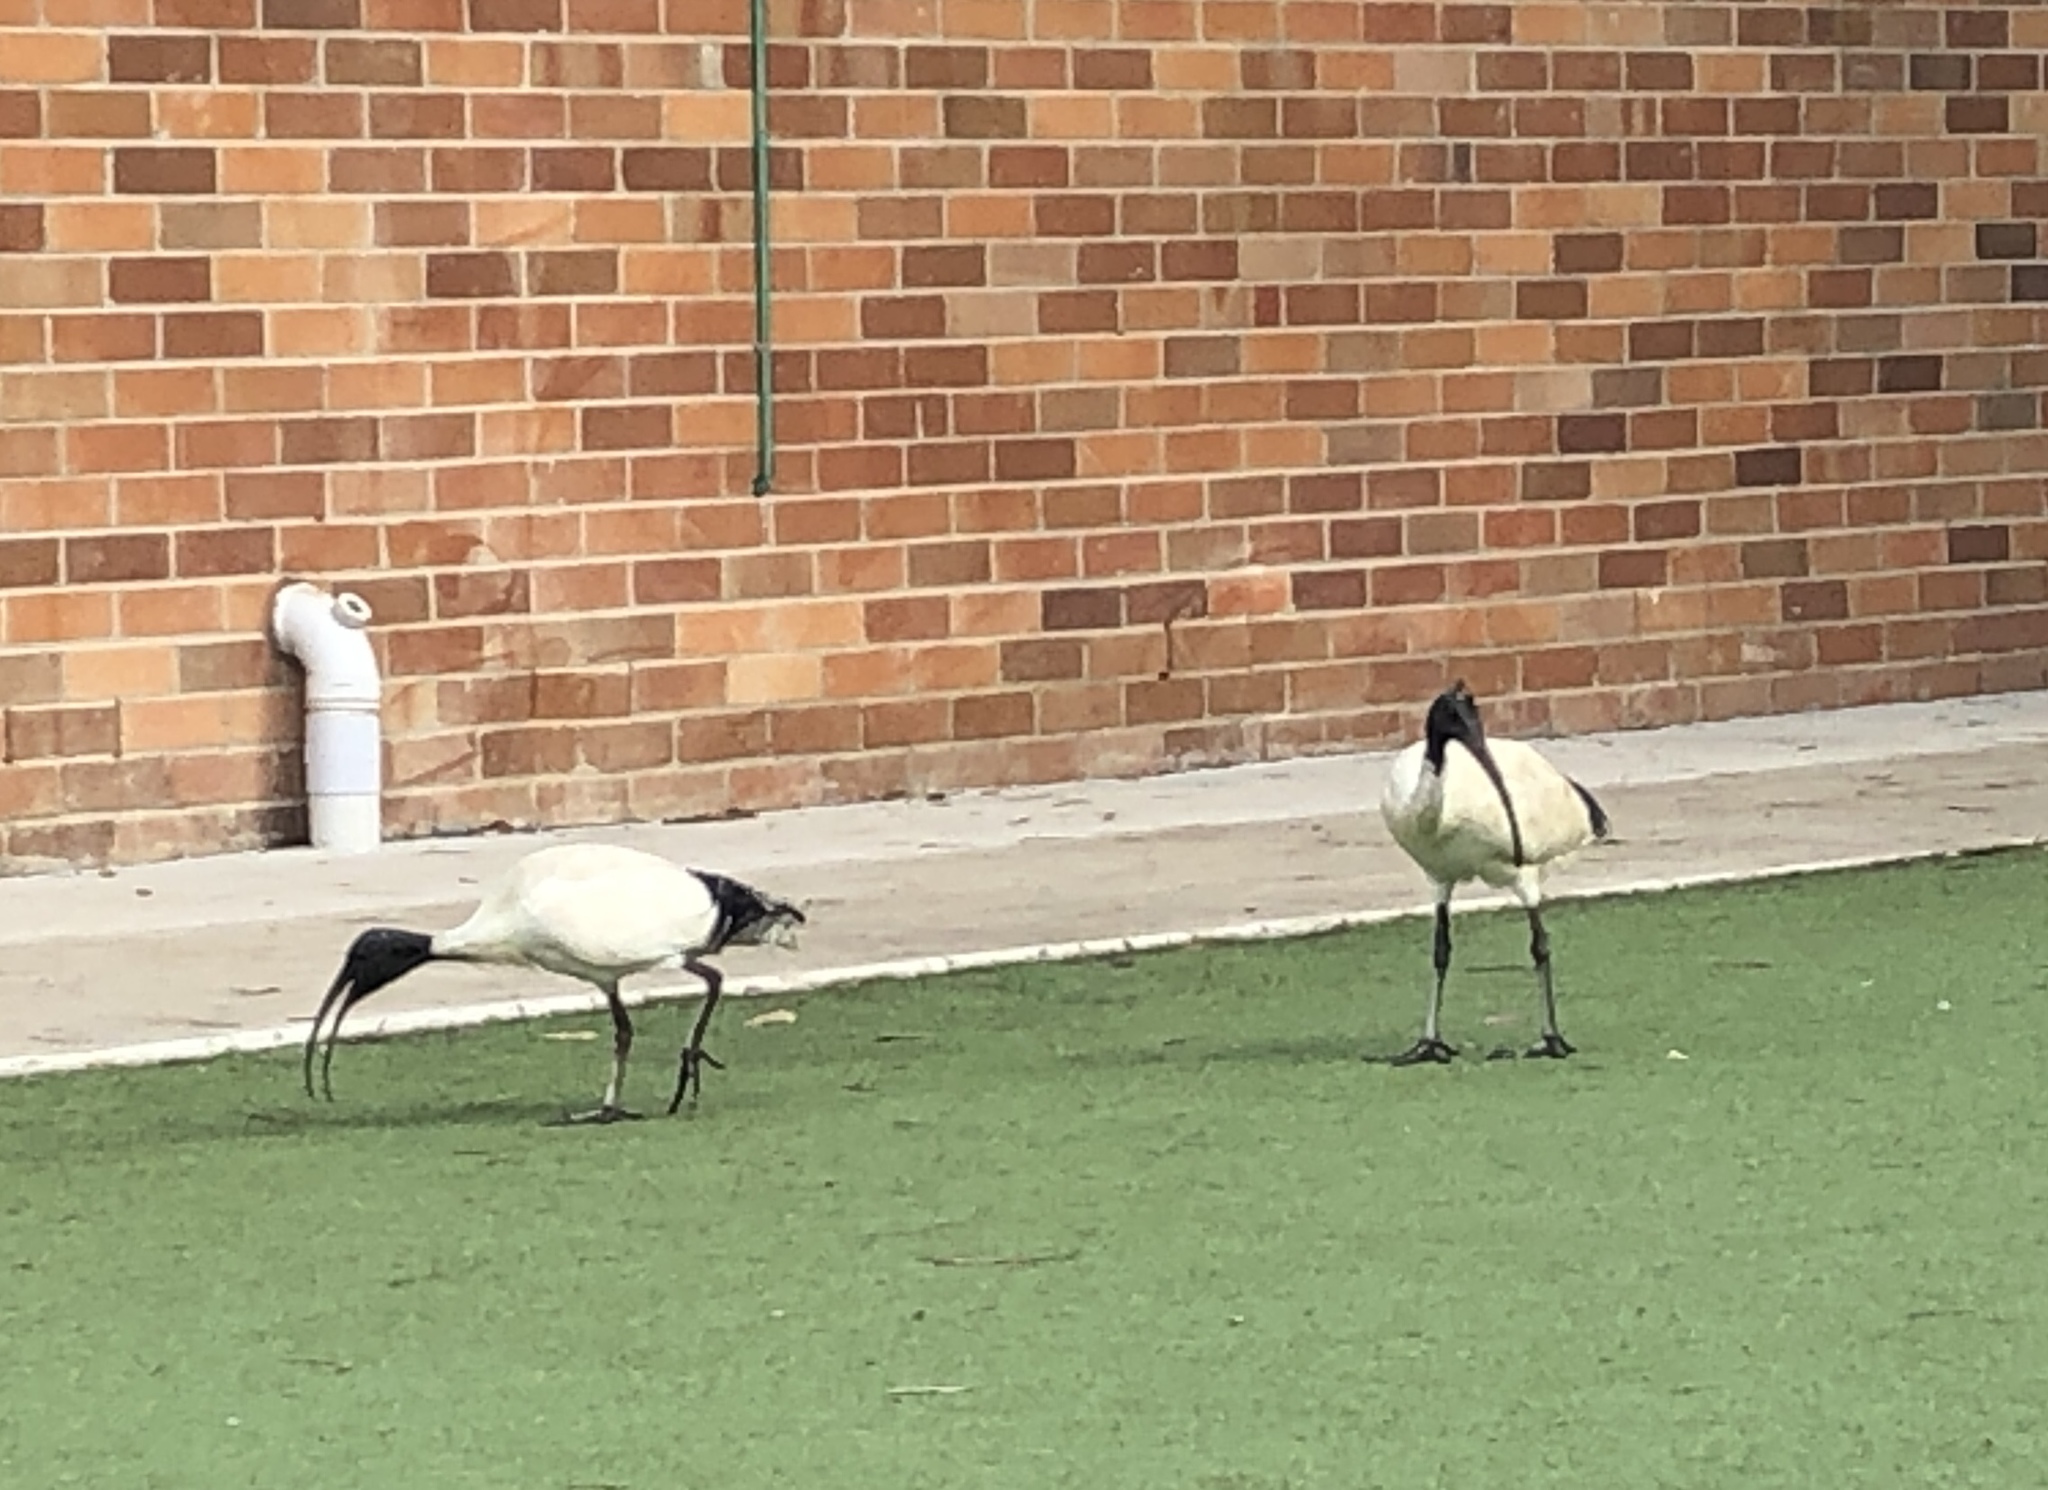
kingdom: Animalia
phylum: Chordata
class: Aves
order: Pelecaniformes
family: Threskiornithidae
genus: Threskiornis
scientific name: Threskiornis molucca
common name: Australian white ibis
